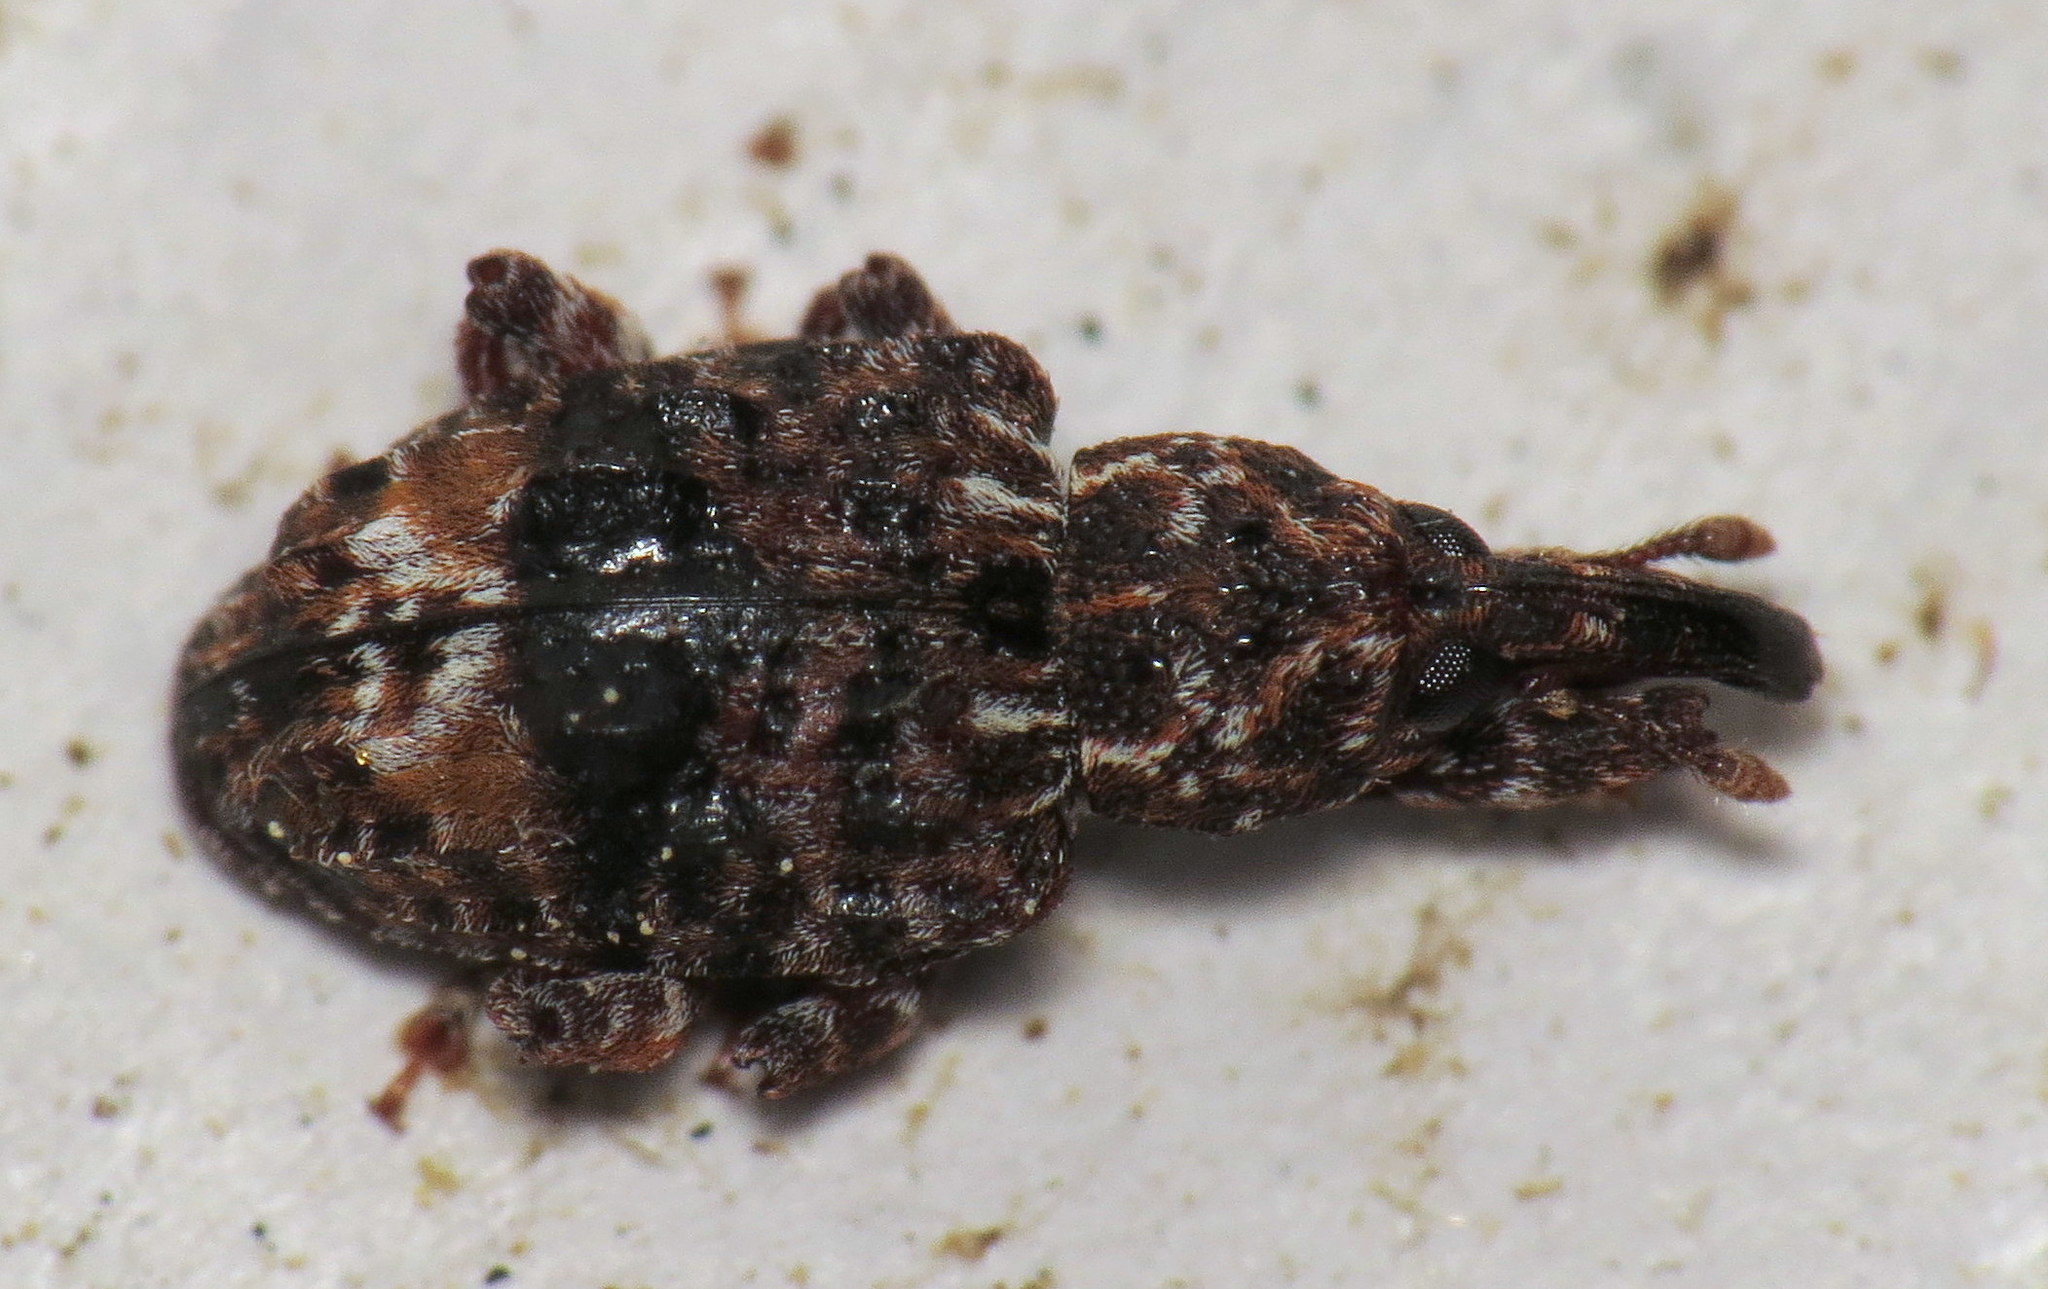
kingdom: Animalia
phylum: Arthropoda
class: Insecta
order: Coleoptera
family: Curculionidae
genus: Conotrachelus
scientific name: Conotrachelus nenuphar
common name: Plum curculio
